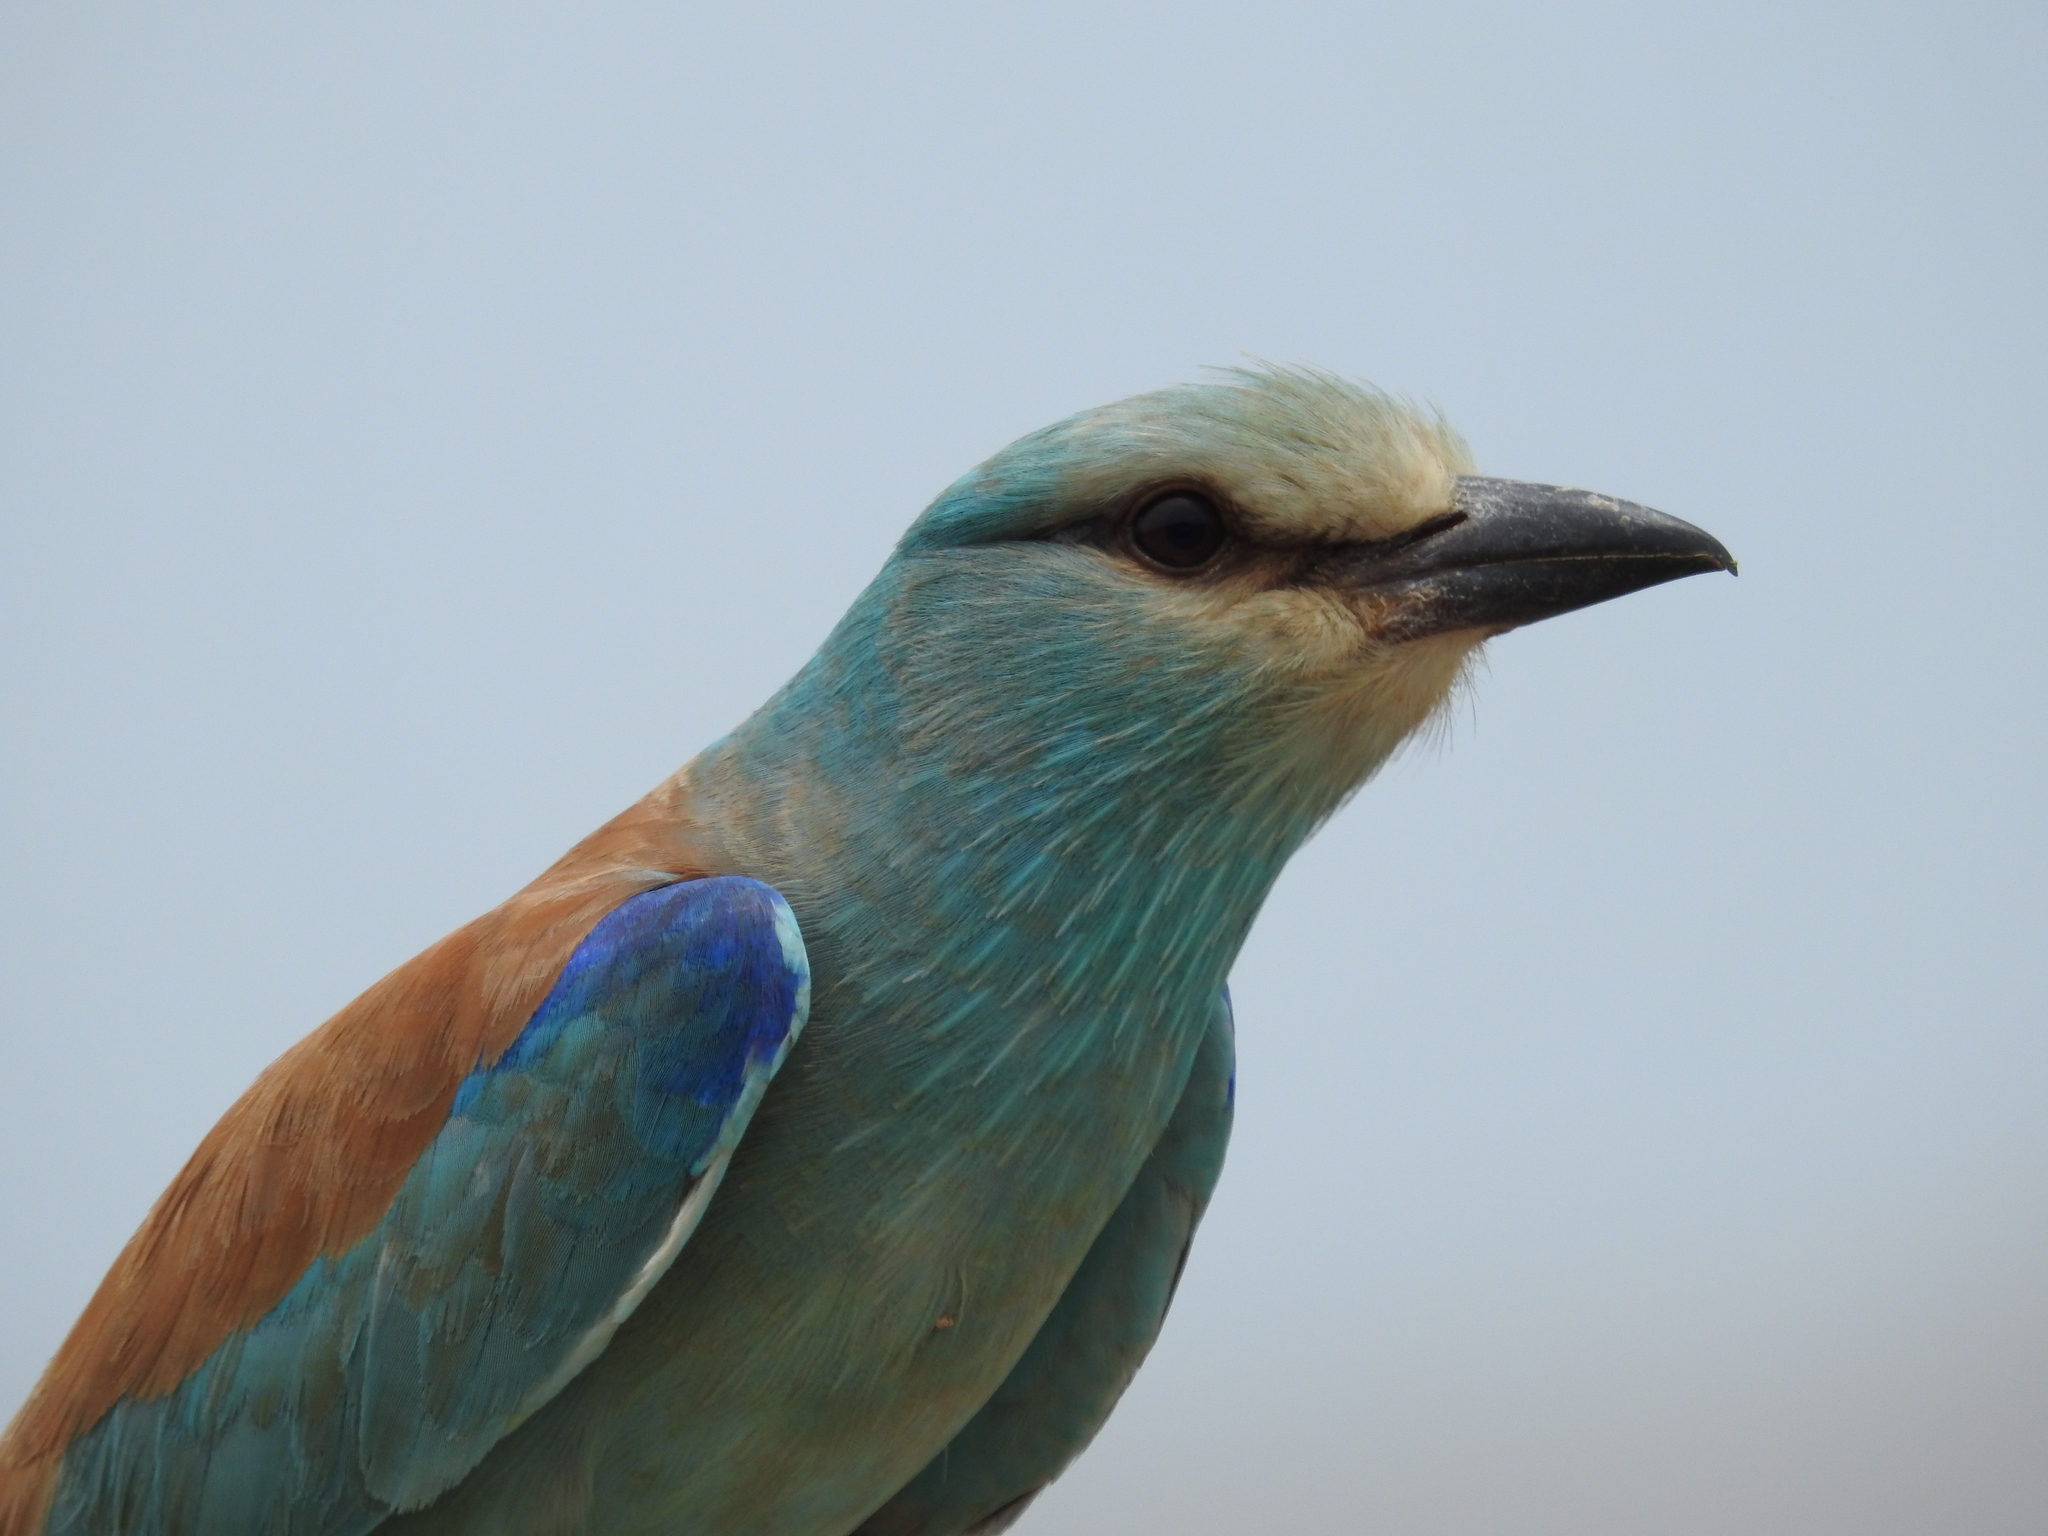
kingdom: Animalia
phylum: Chordata
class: Aves
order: Coraciiformes
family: Coraciidae
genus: Coracias
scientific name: Coracias garrulus
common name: European roller
